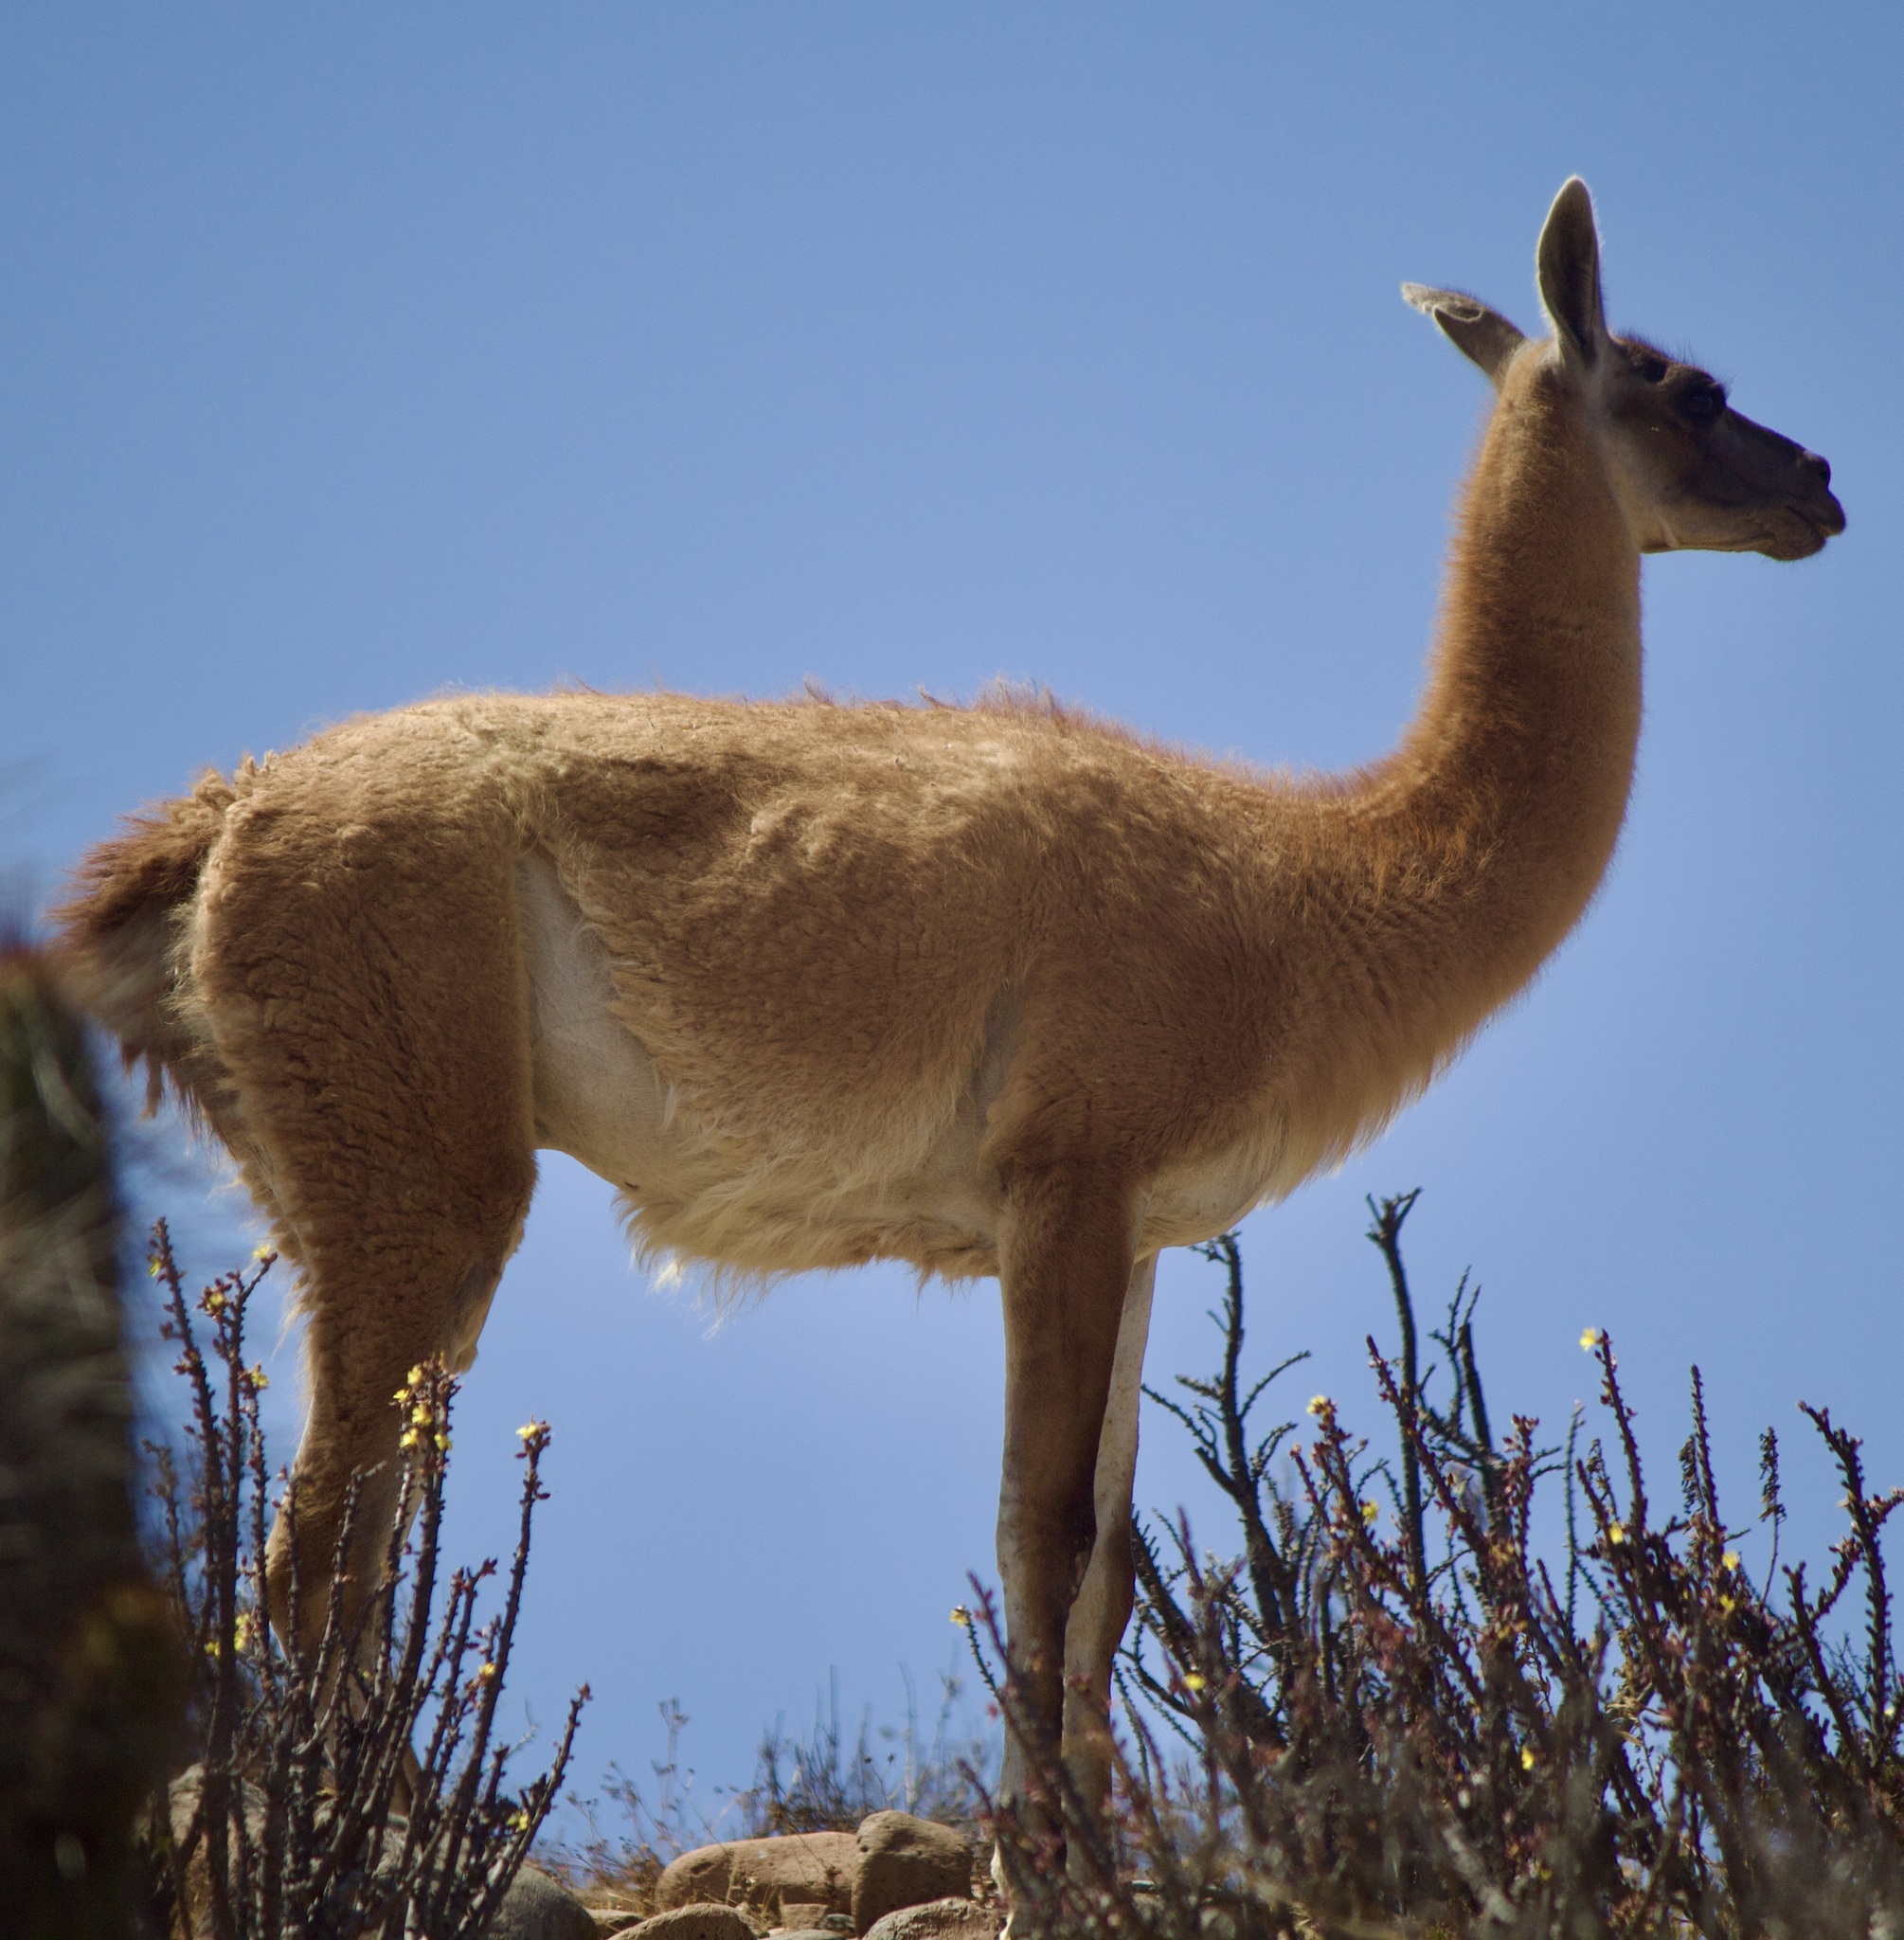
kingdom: Animalia
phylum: Chordata
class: Mammalia
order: Artiodactyla
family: Camelidae
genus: Lama
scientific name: Lama glama
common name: Llama
